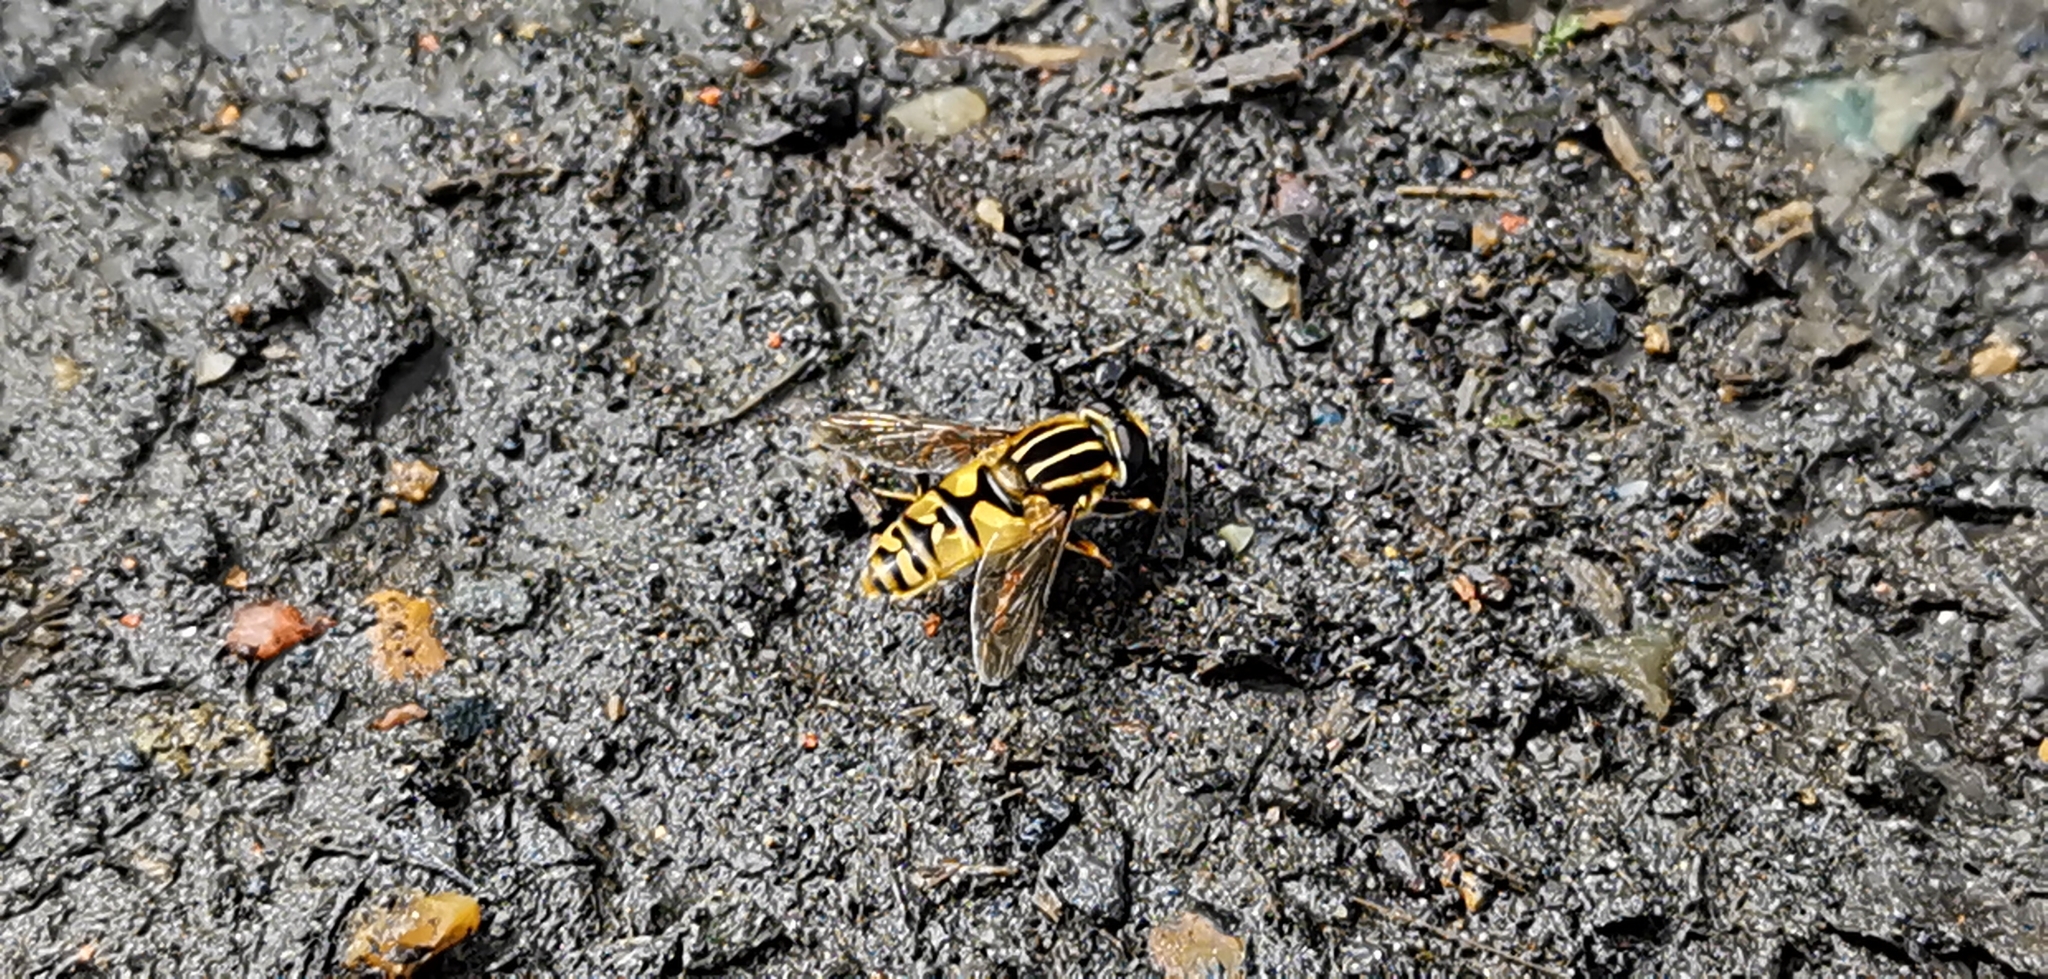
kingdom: Animalia
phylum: Arthropoda
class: Insecta
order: Diptera
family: Syrphidae
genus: Helophilus
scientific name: Helophilus pendulus
